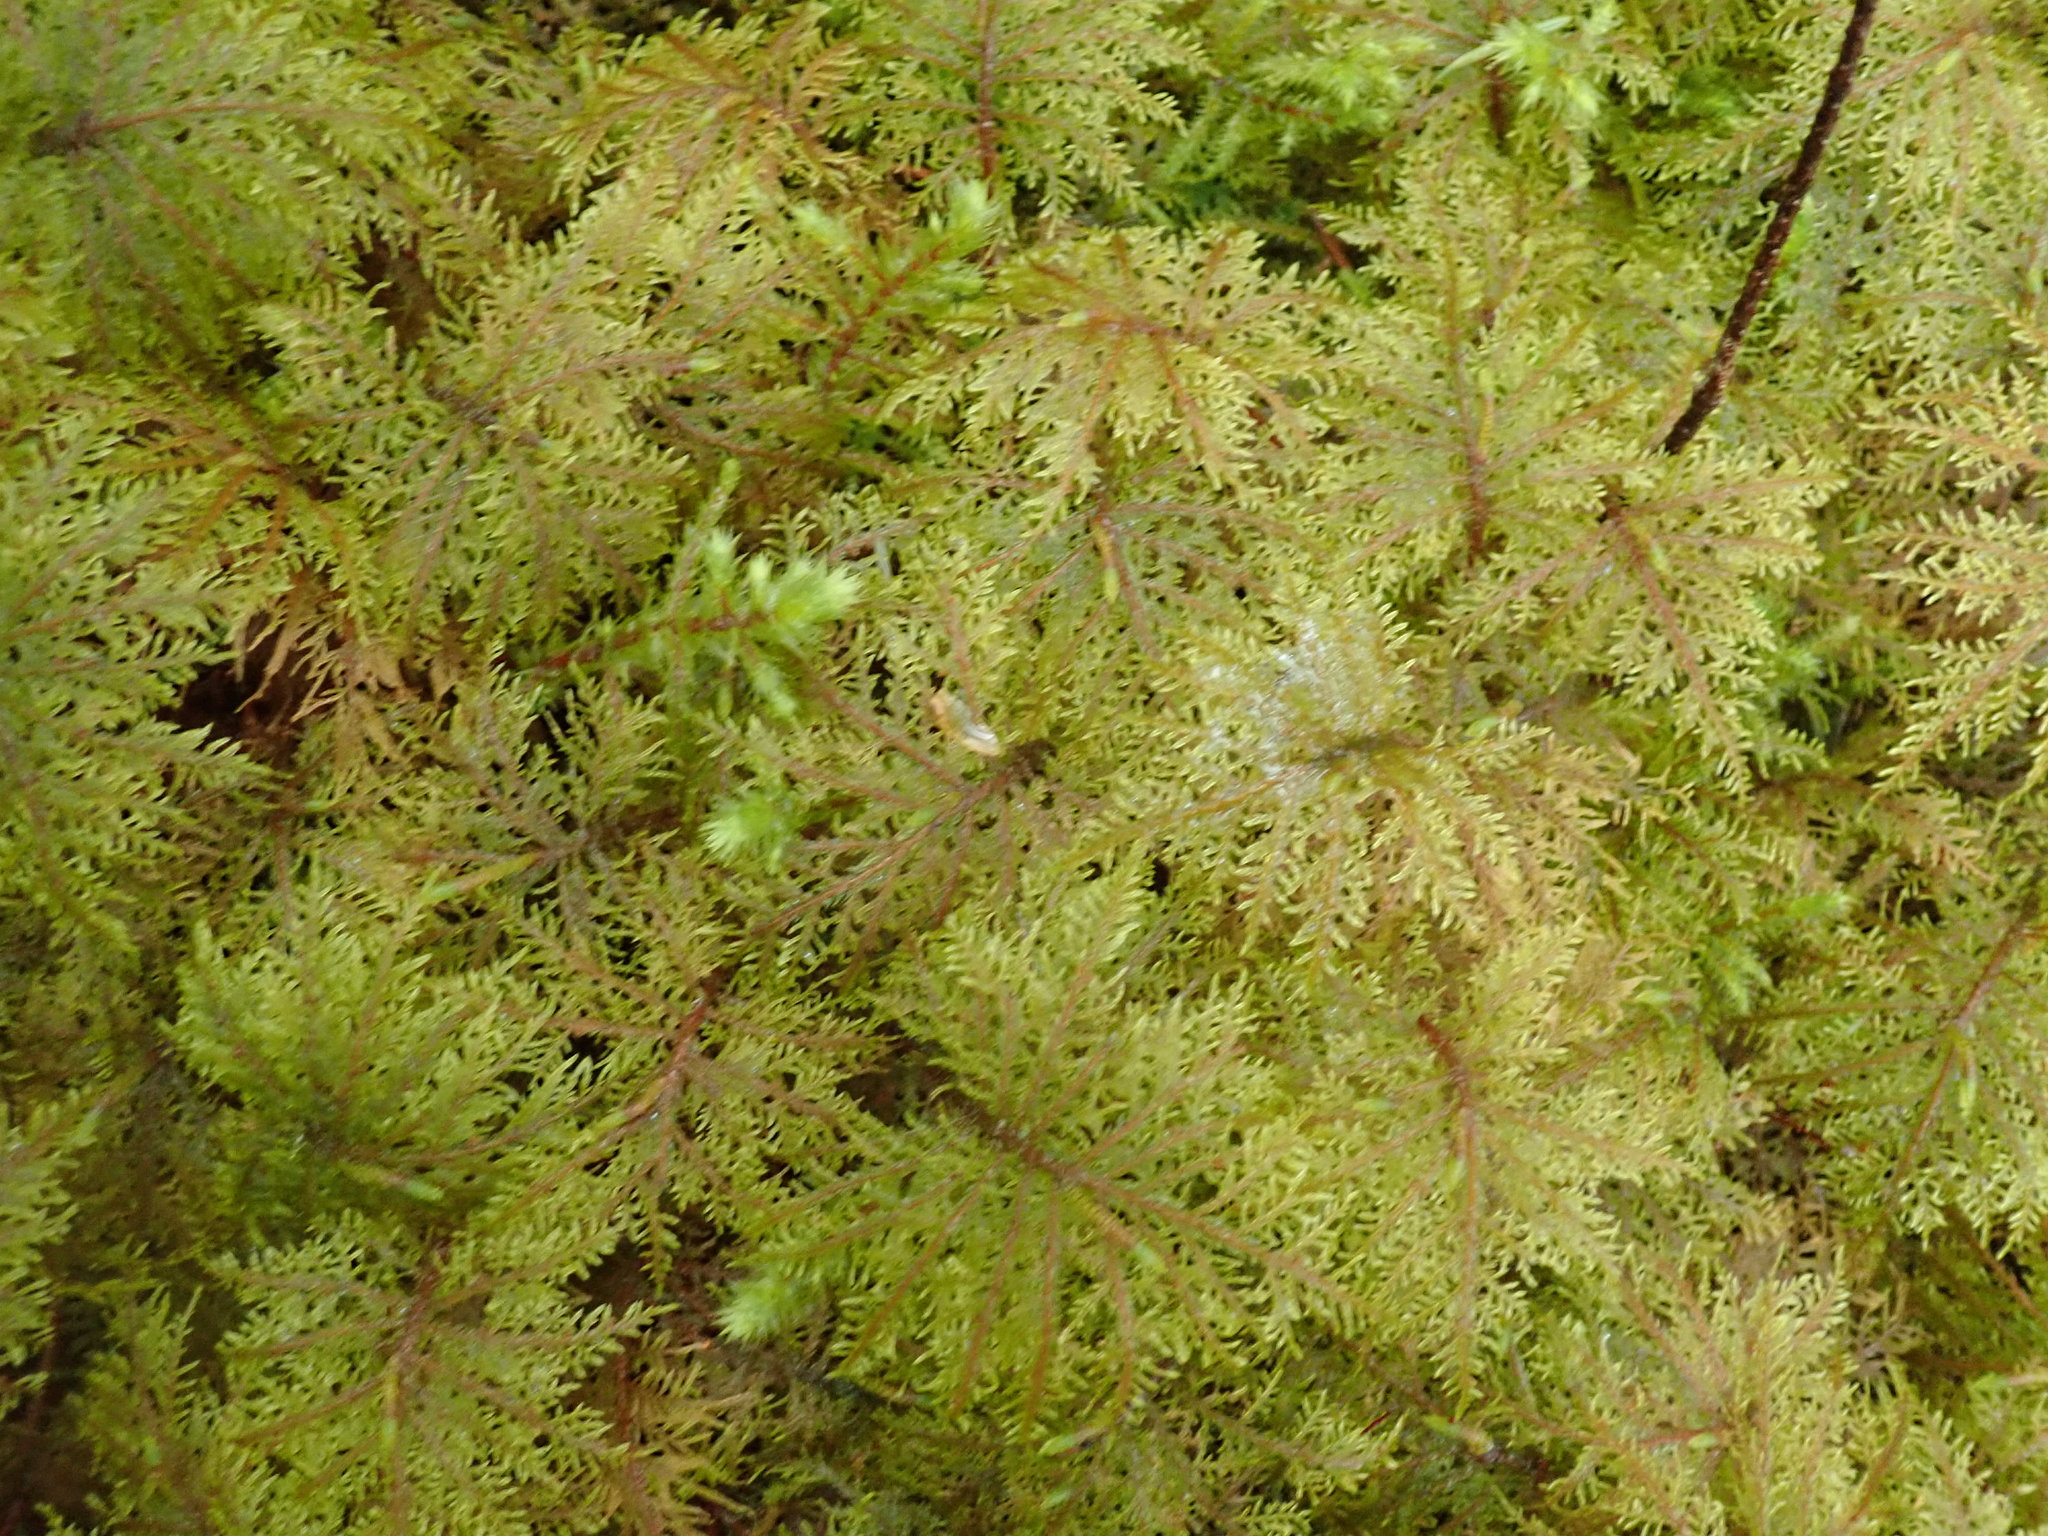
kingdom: Plantae
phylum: Bryophyta
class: Bryopsida
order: Hypnales
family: Hylocomiaceae
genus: Hylocomium
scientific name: Hylocomium splendens
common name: Stairstep moss
